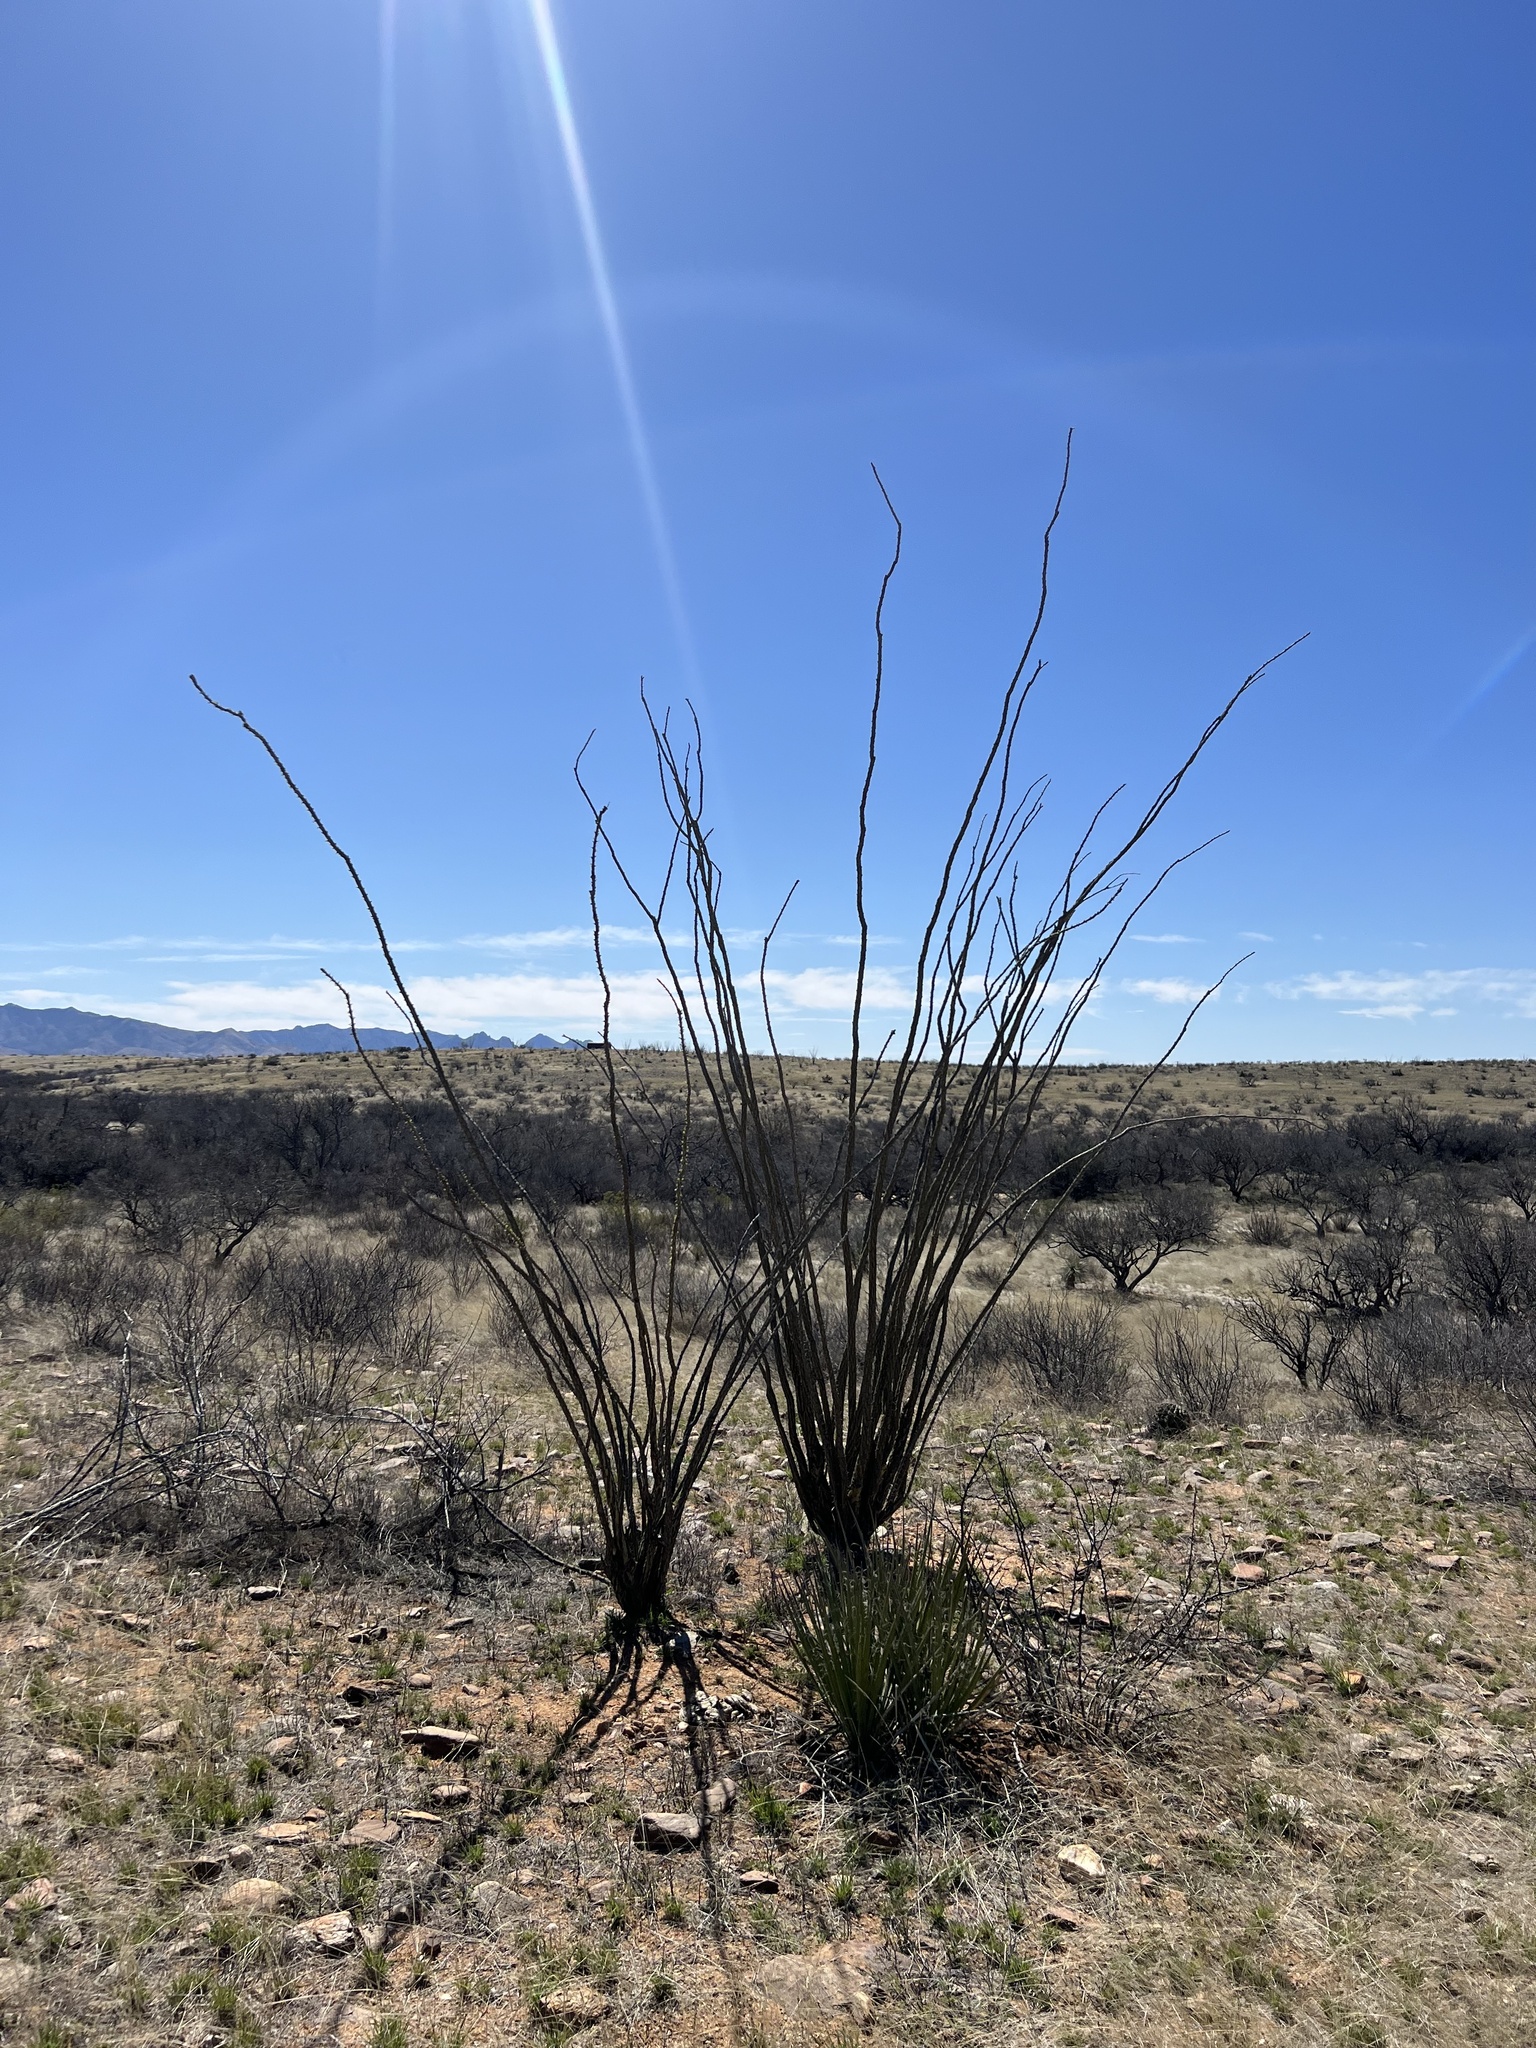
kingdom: Plantae
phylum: Tracheophyta
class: Magnoliopsida
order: Ericales
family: Fouquieriaceae
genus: Fouquieria
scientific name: Fouquieria splendens
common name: Vine-cactus
